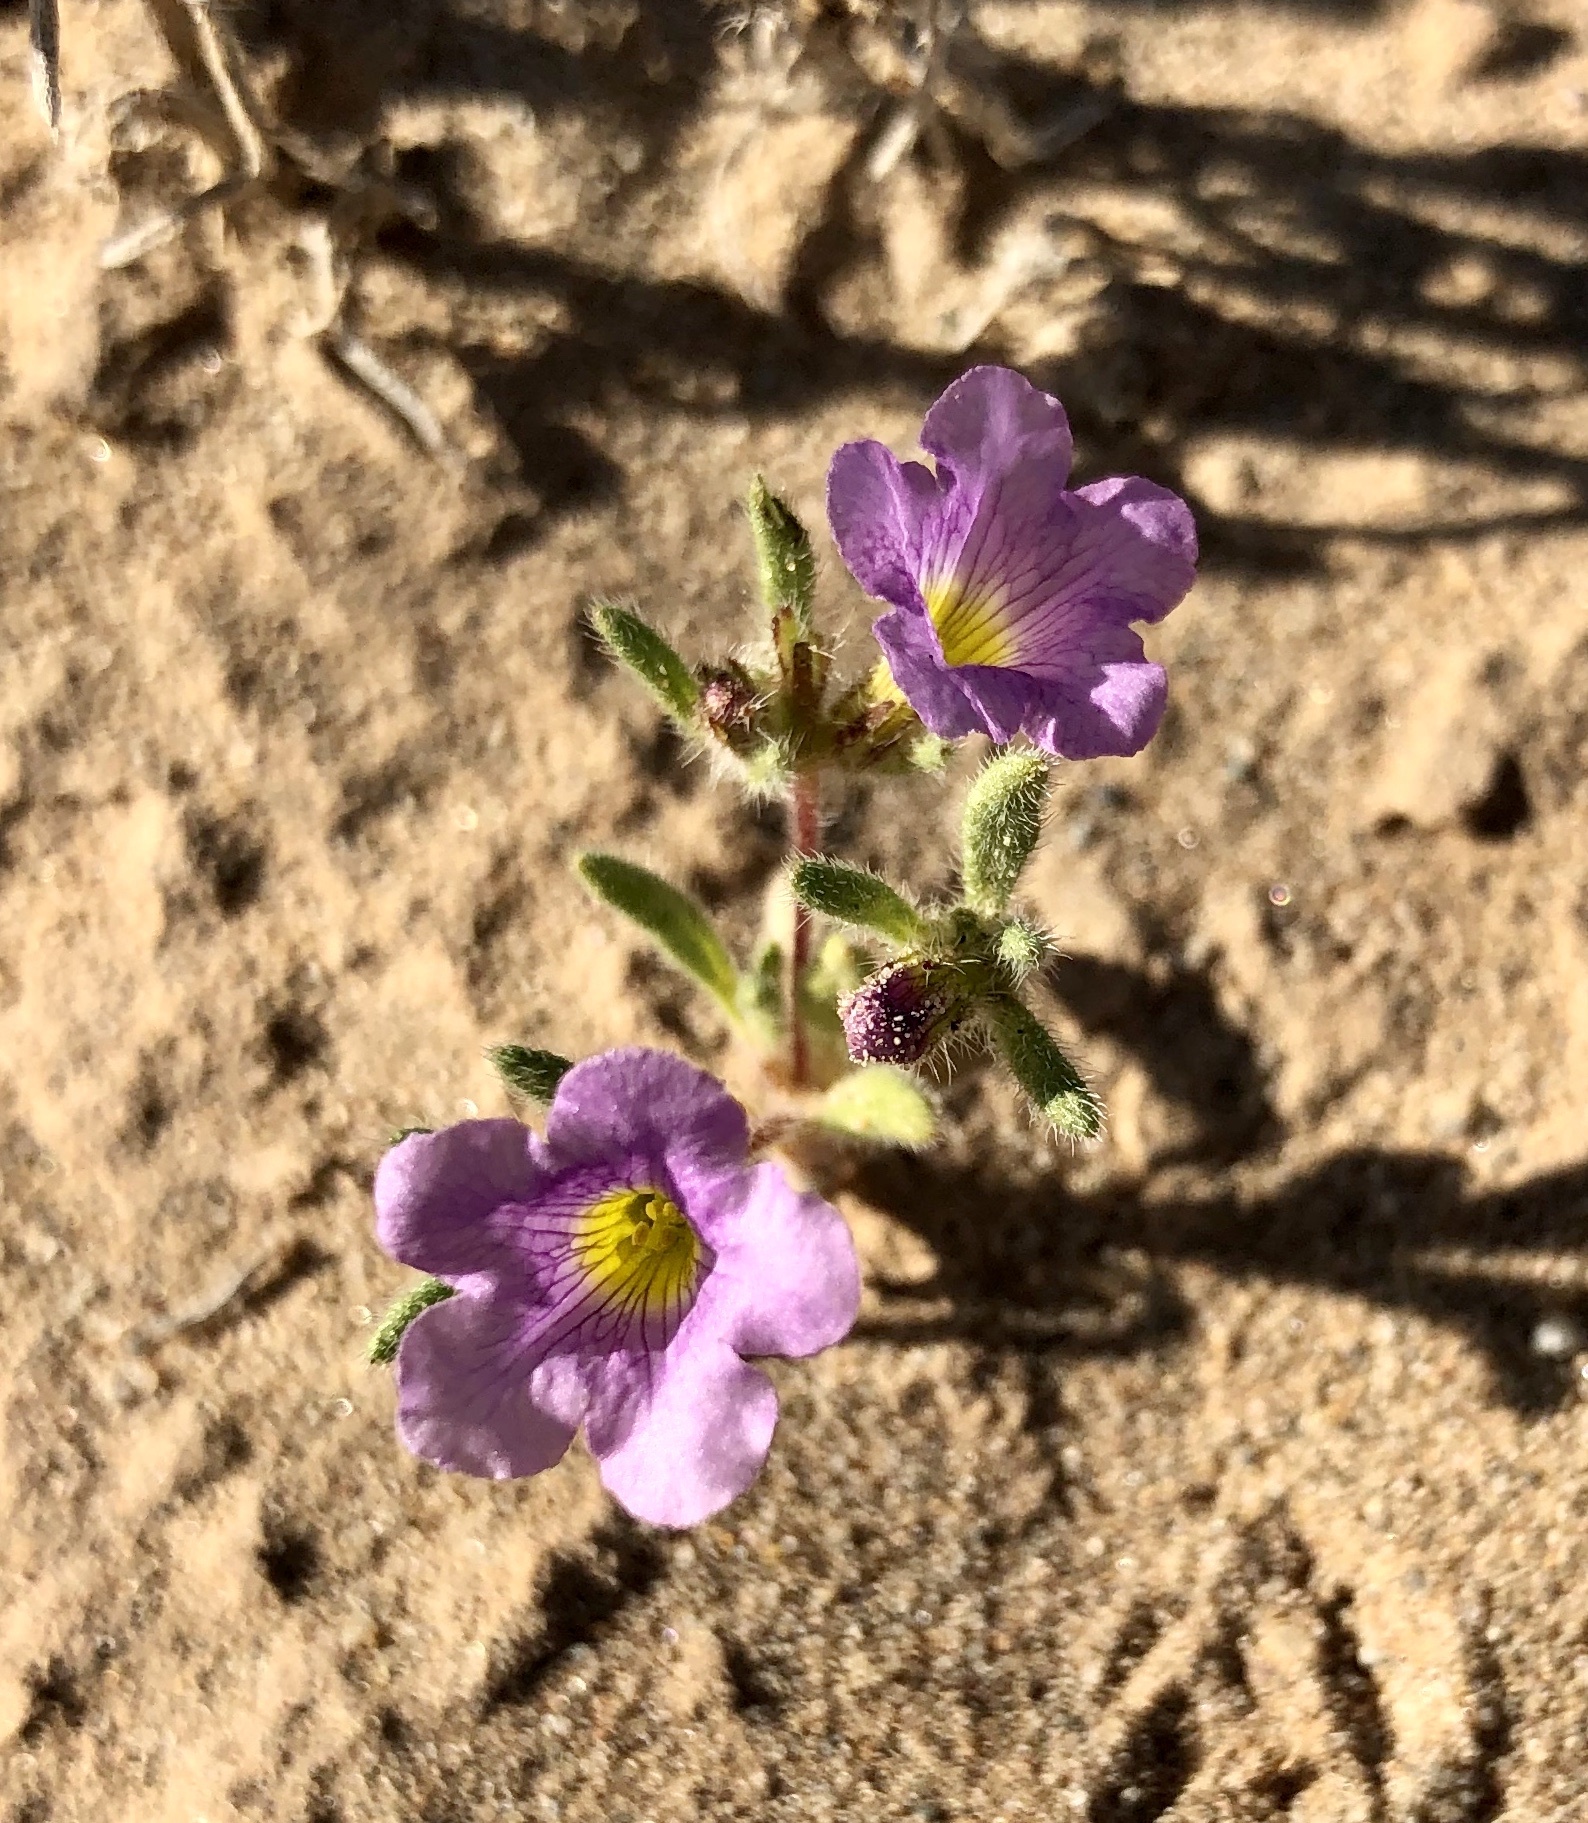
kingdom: Plantae
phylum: Tracheophyta
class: Magnoliopsida
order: Boraginales
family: Namaceae
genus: Nama
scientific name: Nama hispida
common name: Bristly nama
